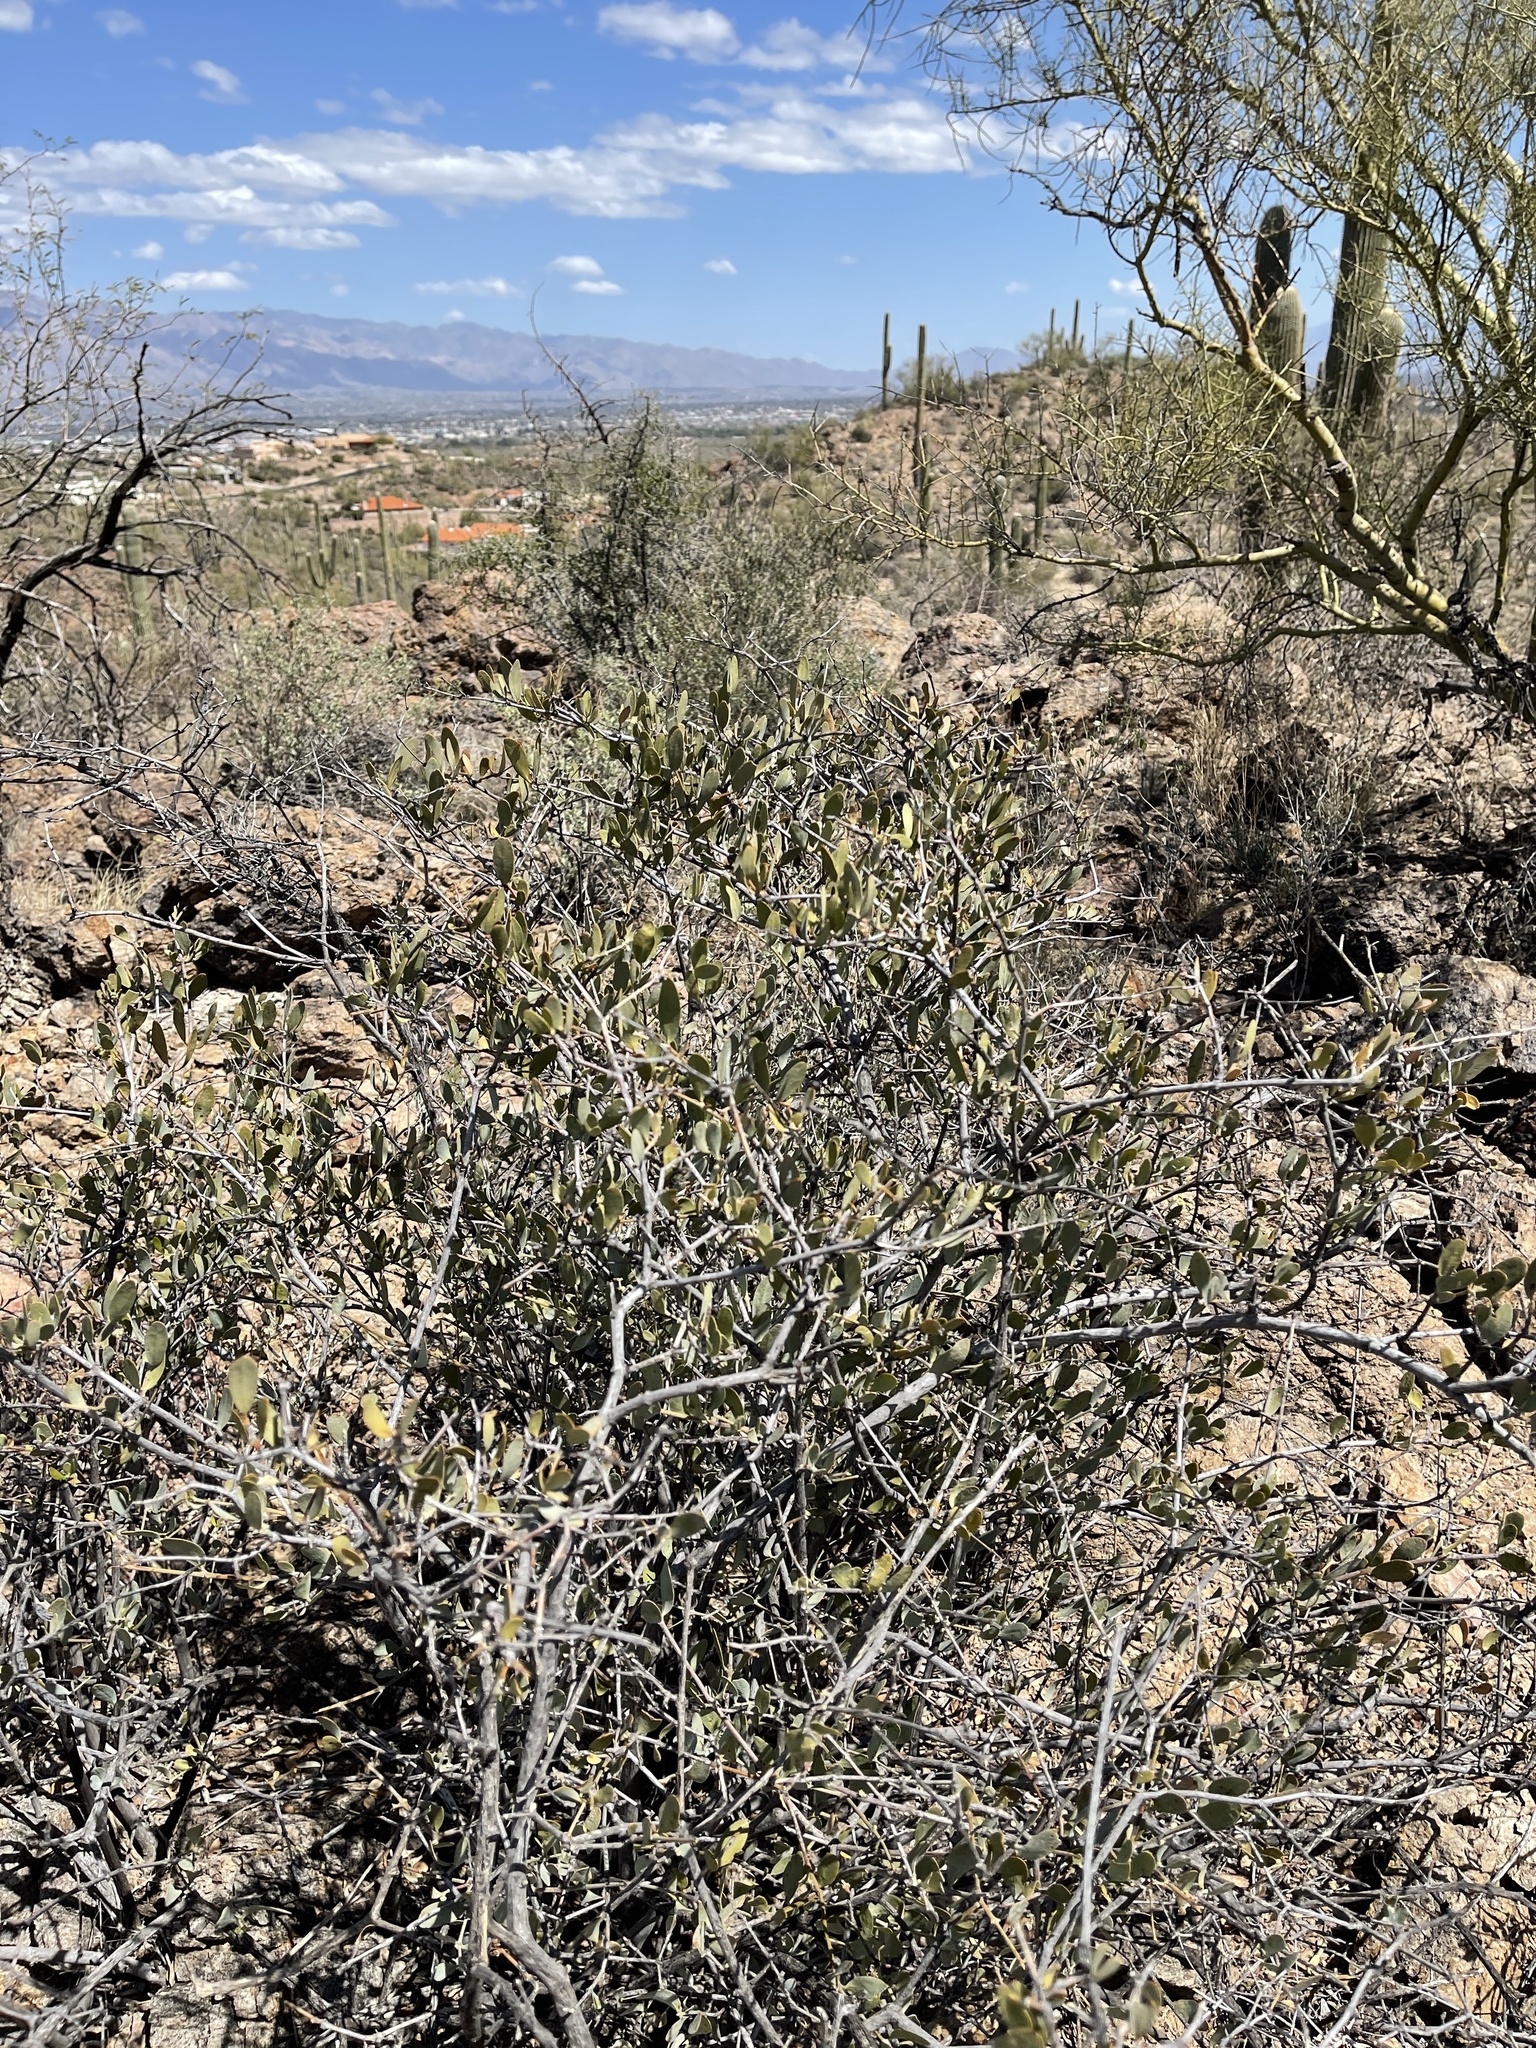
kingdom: Plantae
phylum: Tracheophyta
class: Magnoliopsida
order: Caryophyllales
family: Simmondsiaceae
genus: Simmondsia
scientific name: Simmondsia chinensis
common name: Jojoba
